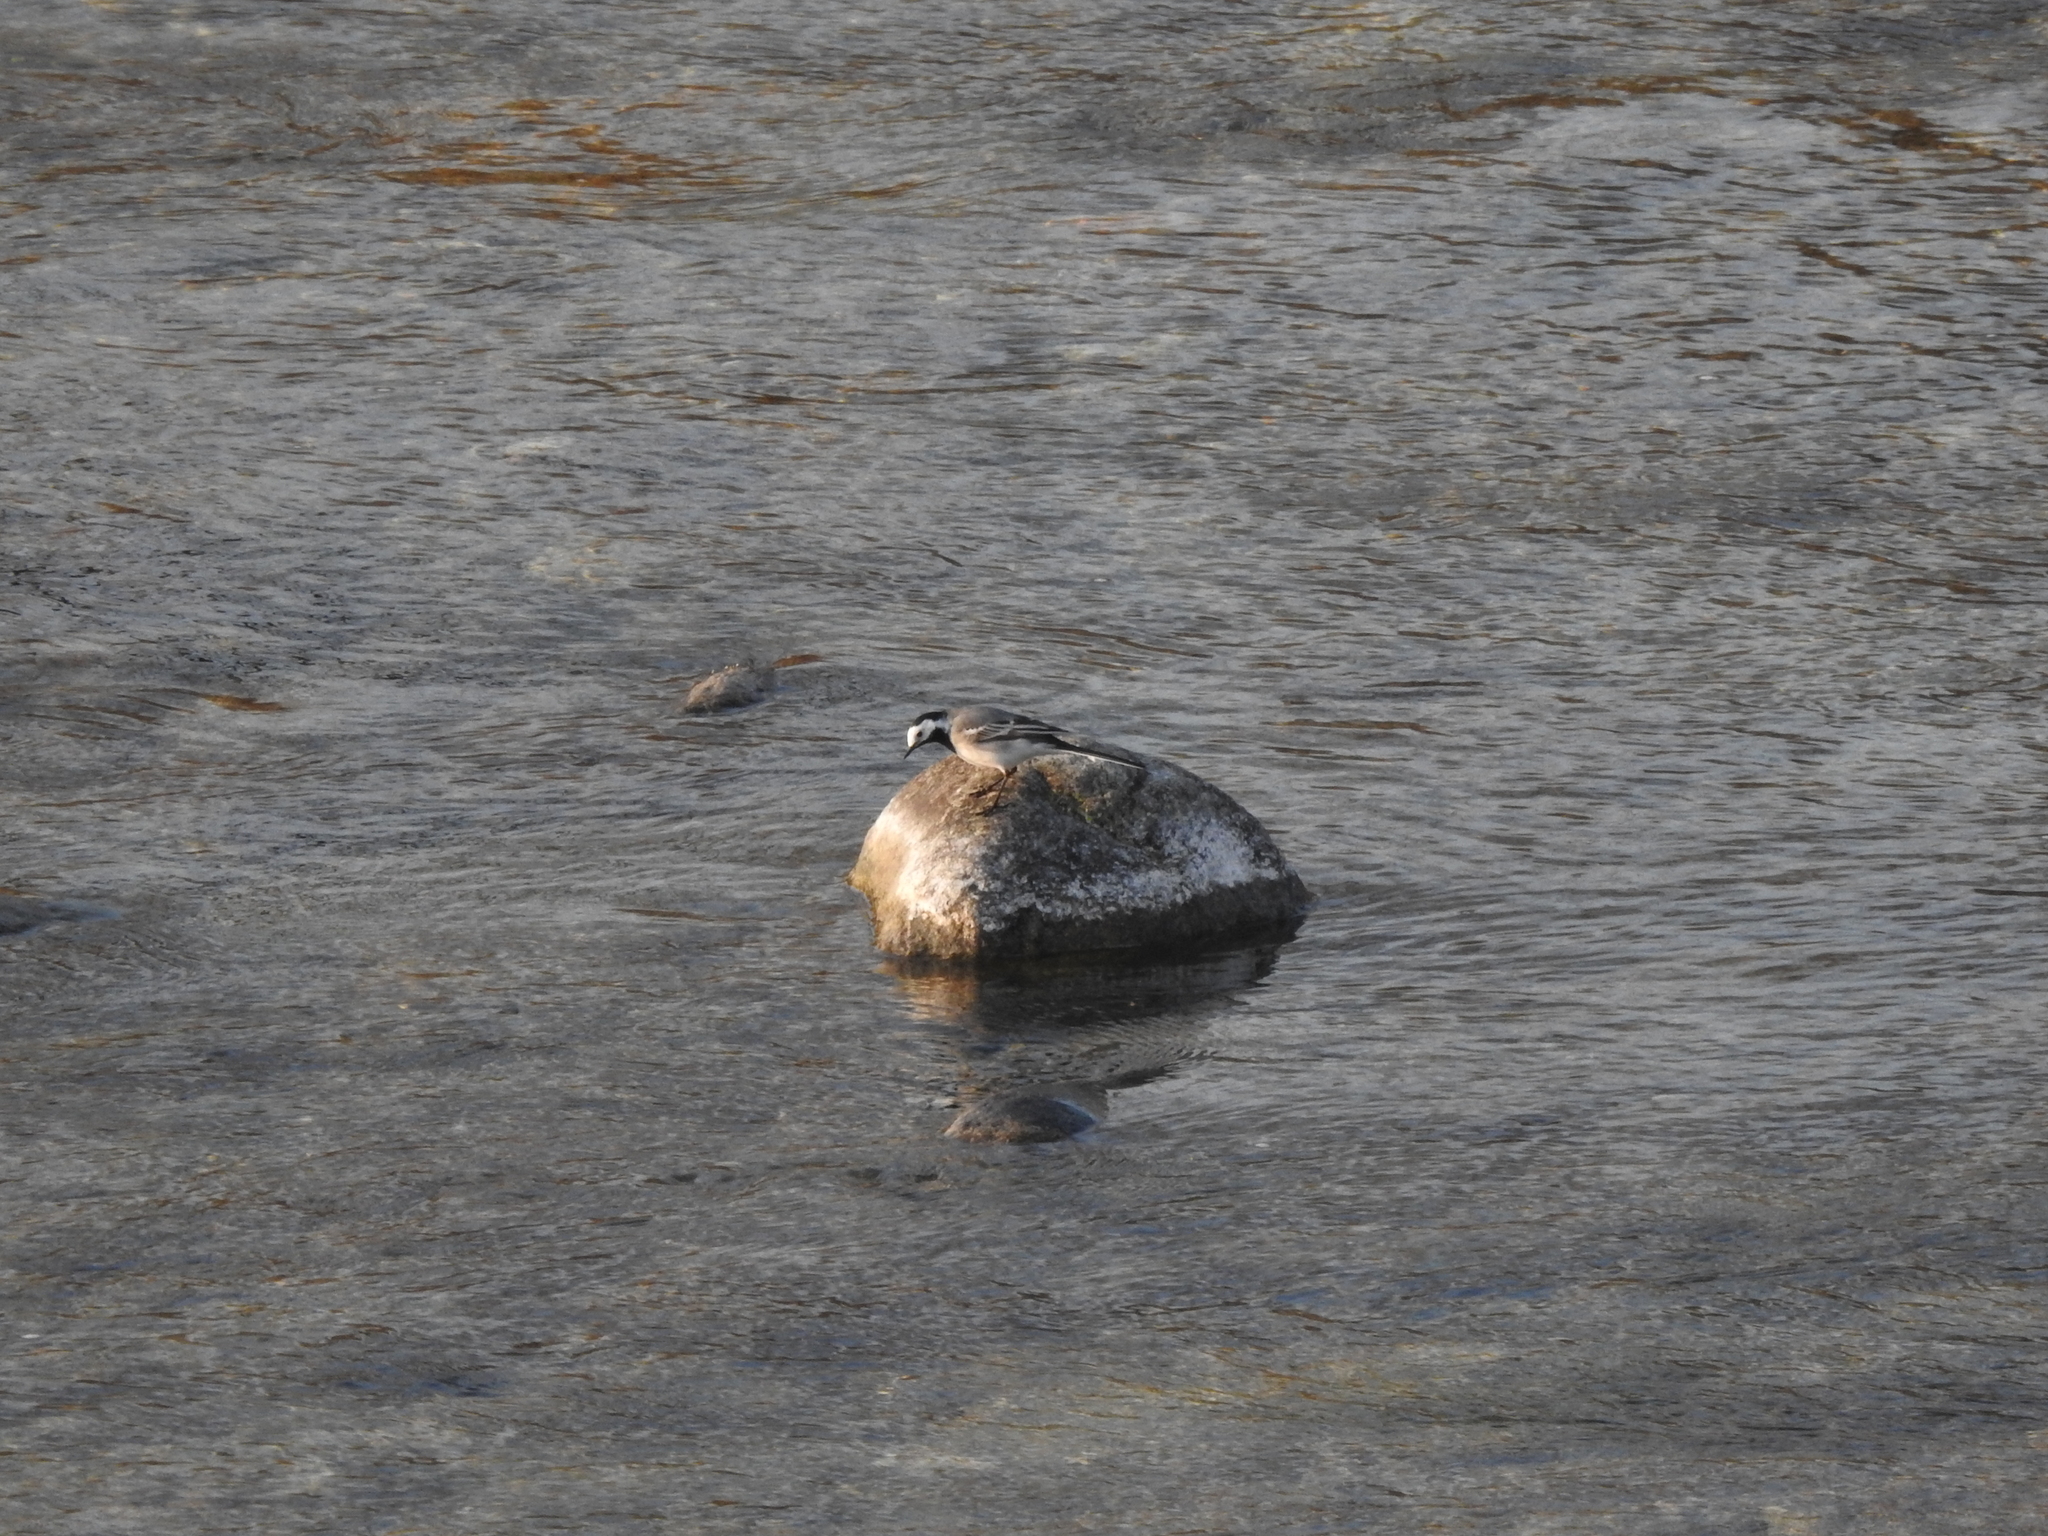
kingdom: Animalia
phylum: Chordata
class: Aves
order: Passeriformes
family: Motacillidae
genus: Motacilla
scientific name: Motacilla alba
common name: White wagtail
